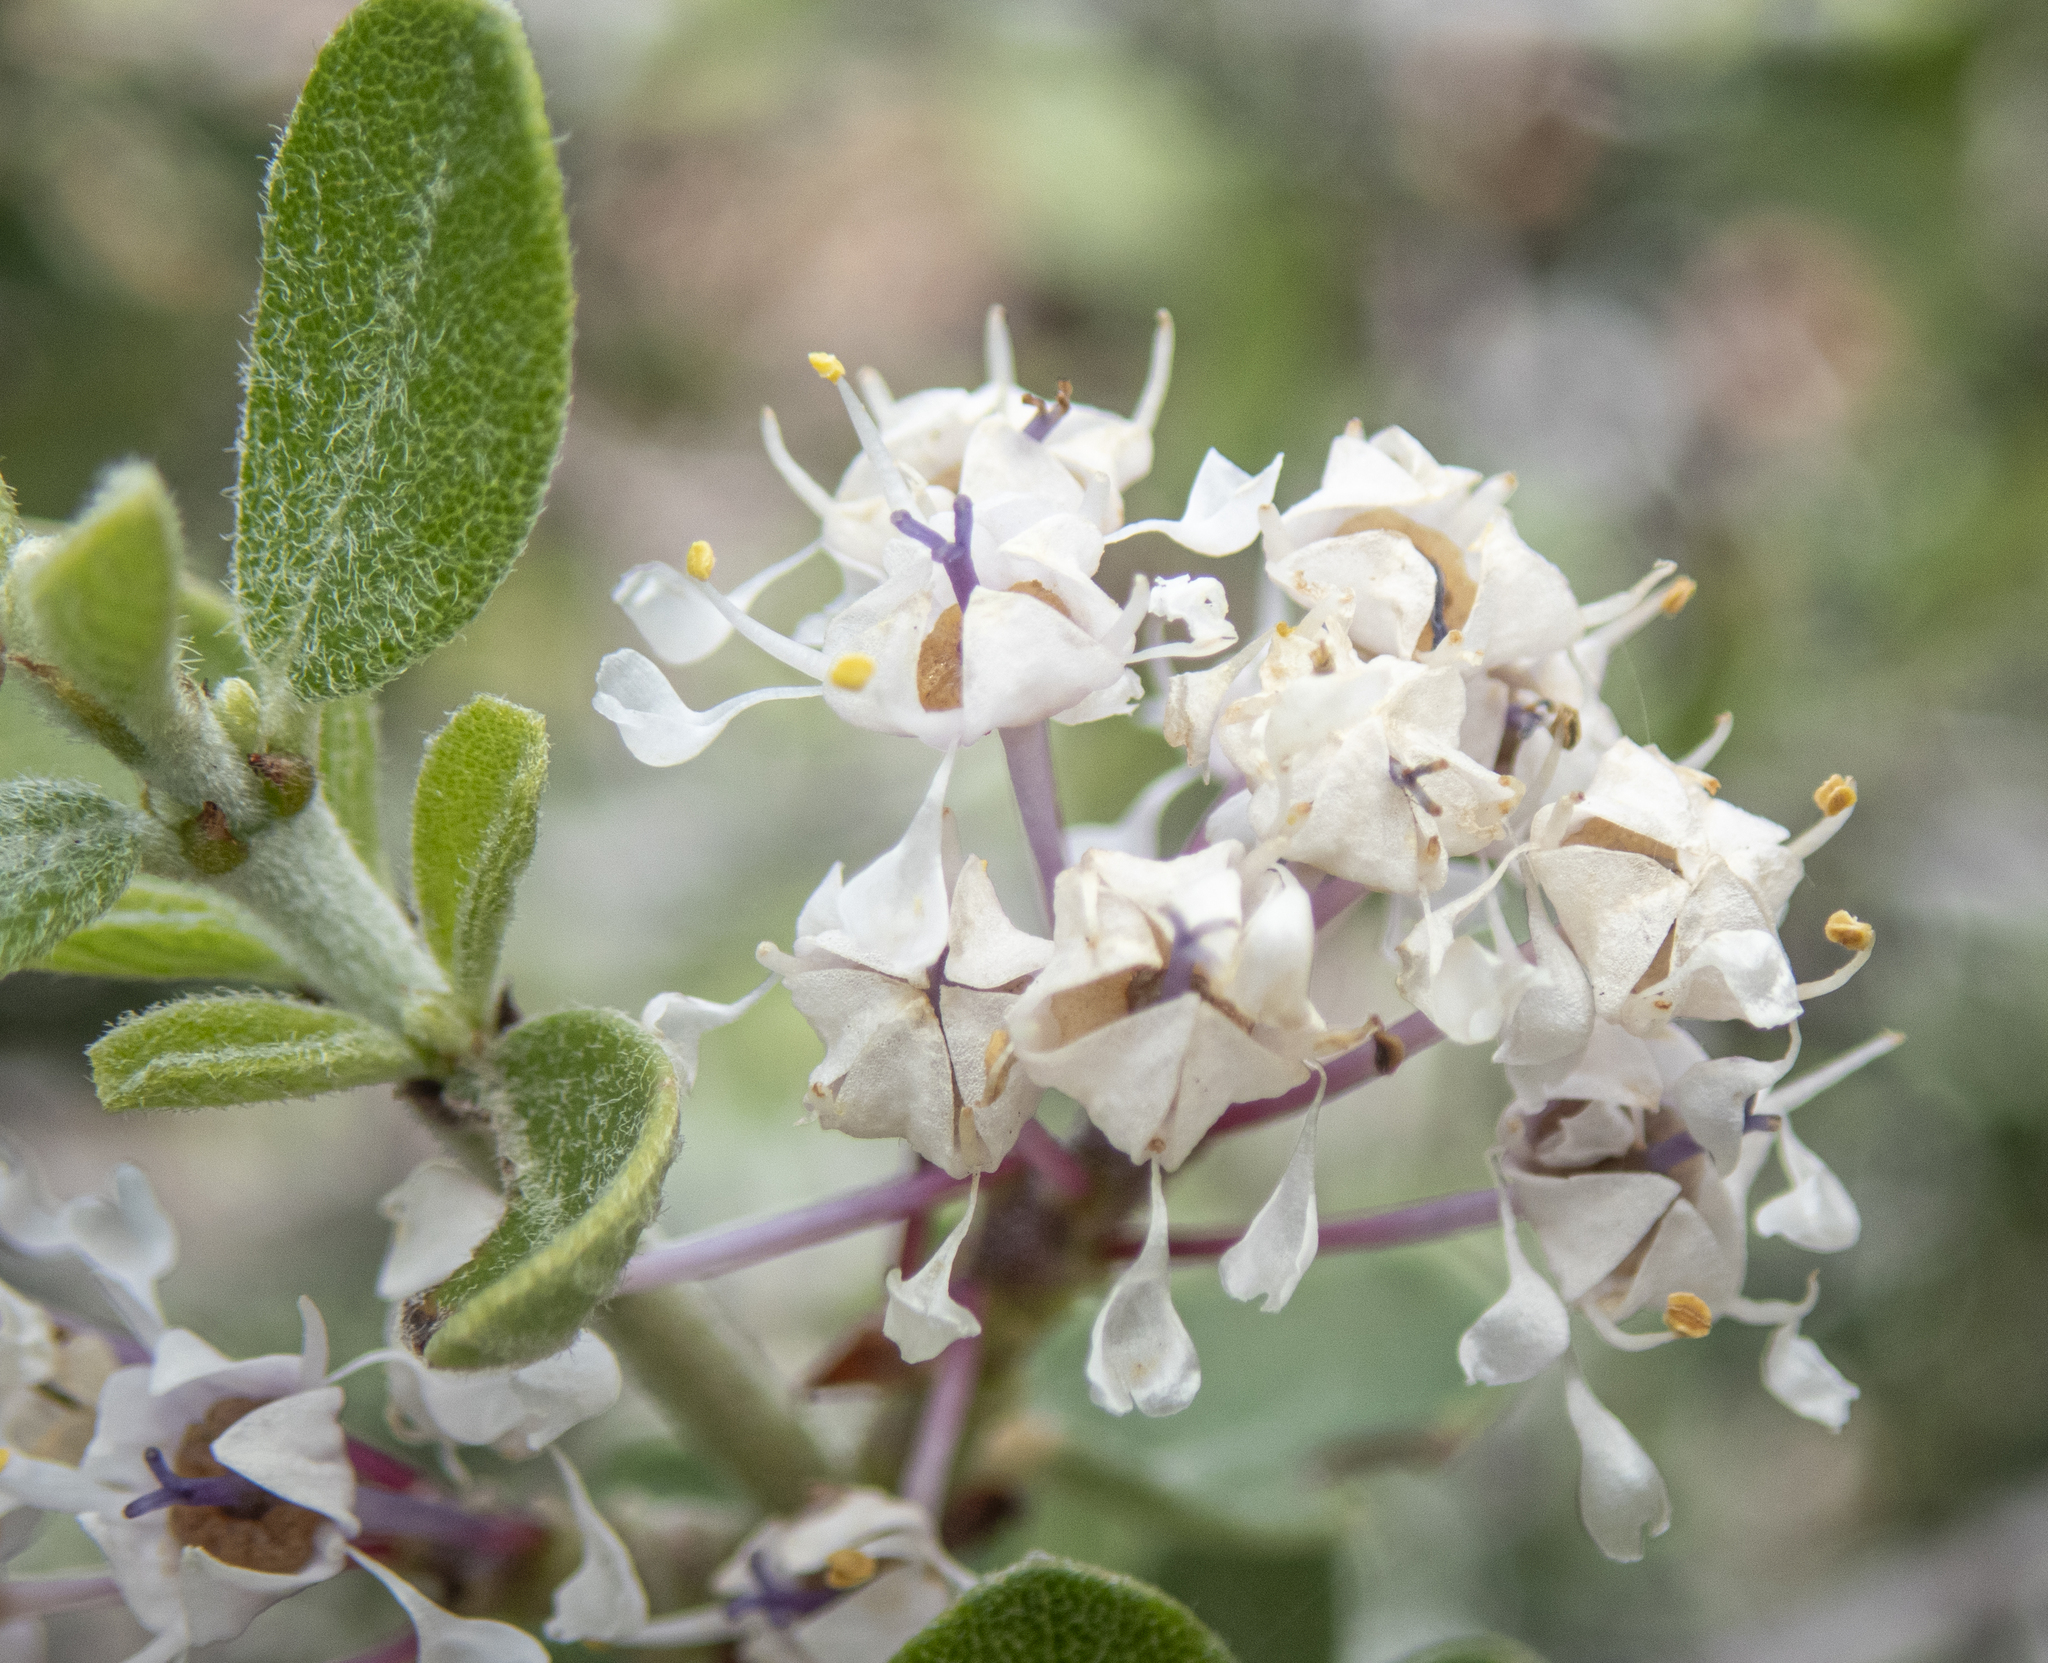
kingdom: Plantae
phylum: Tracheophyta
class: Magnoliopsida
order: Rosales
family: Rhamnaceae
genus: Ceanothus
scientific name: Ceanothus pauciflorus
